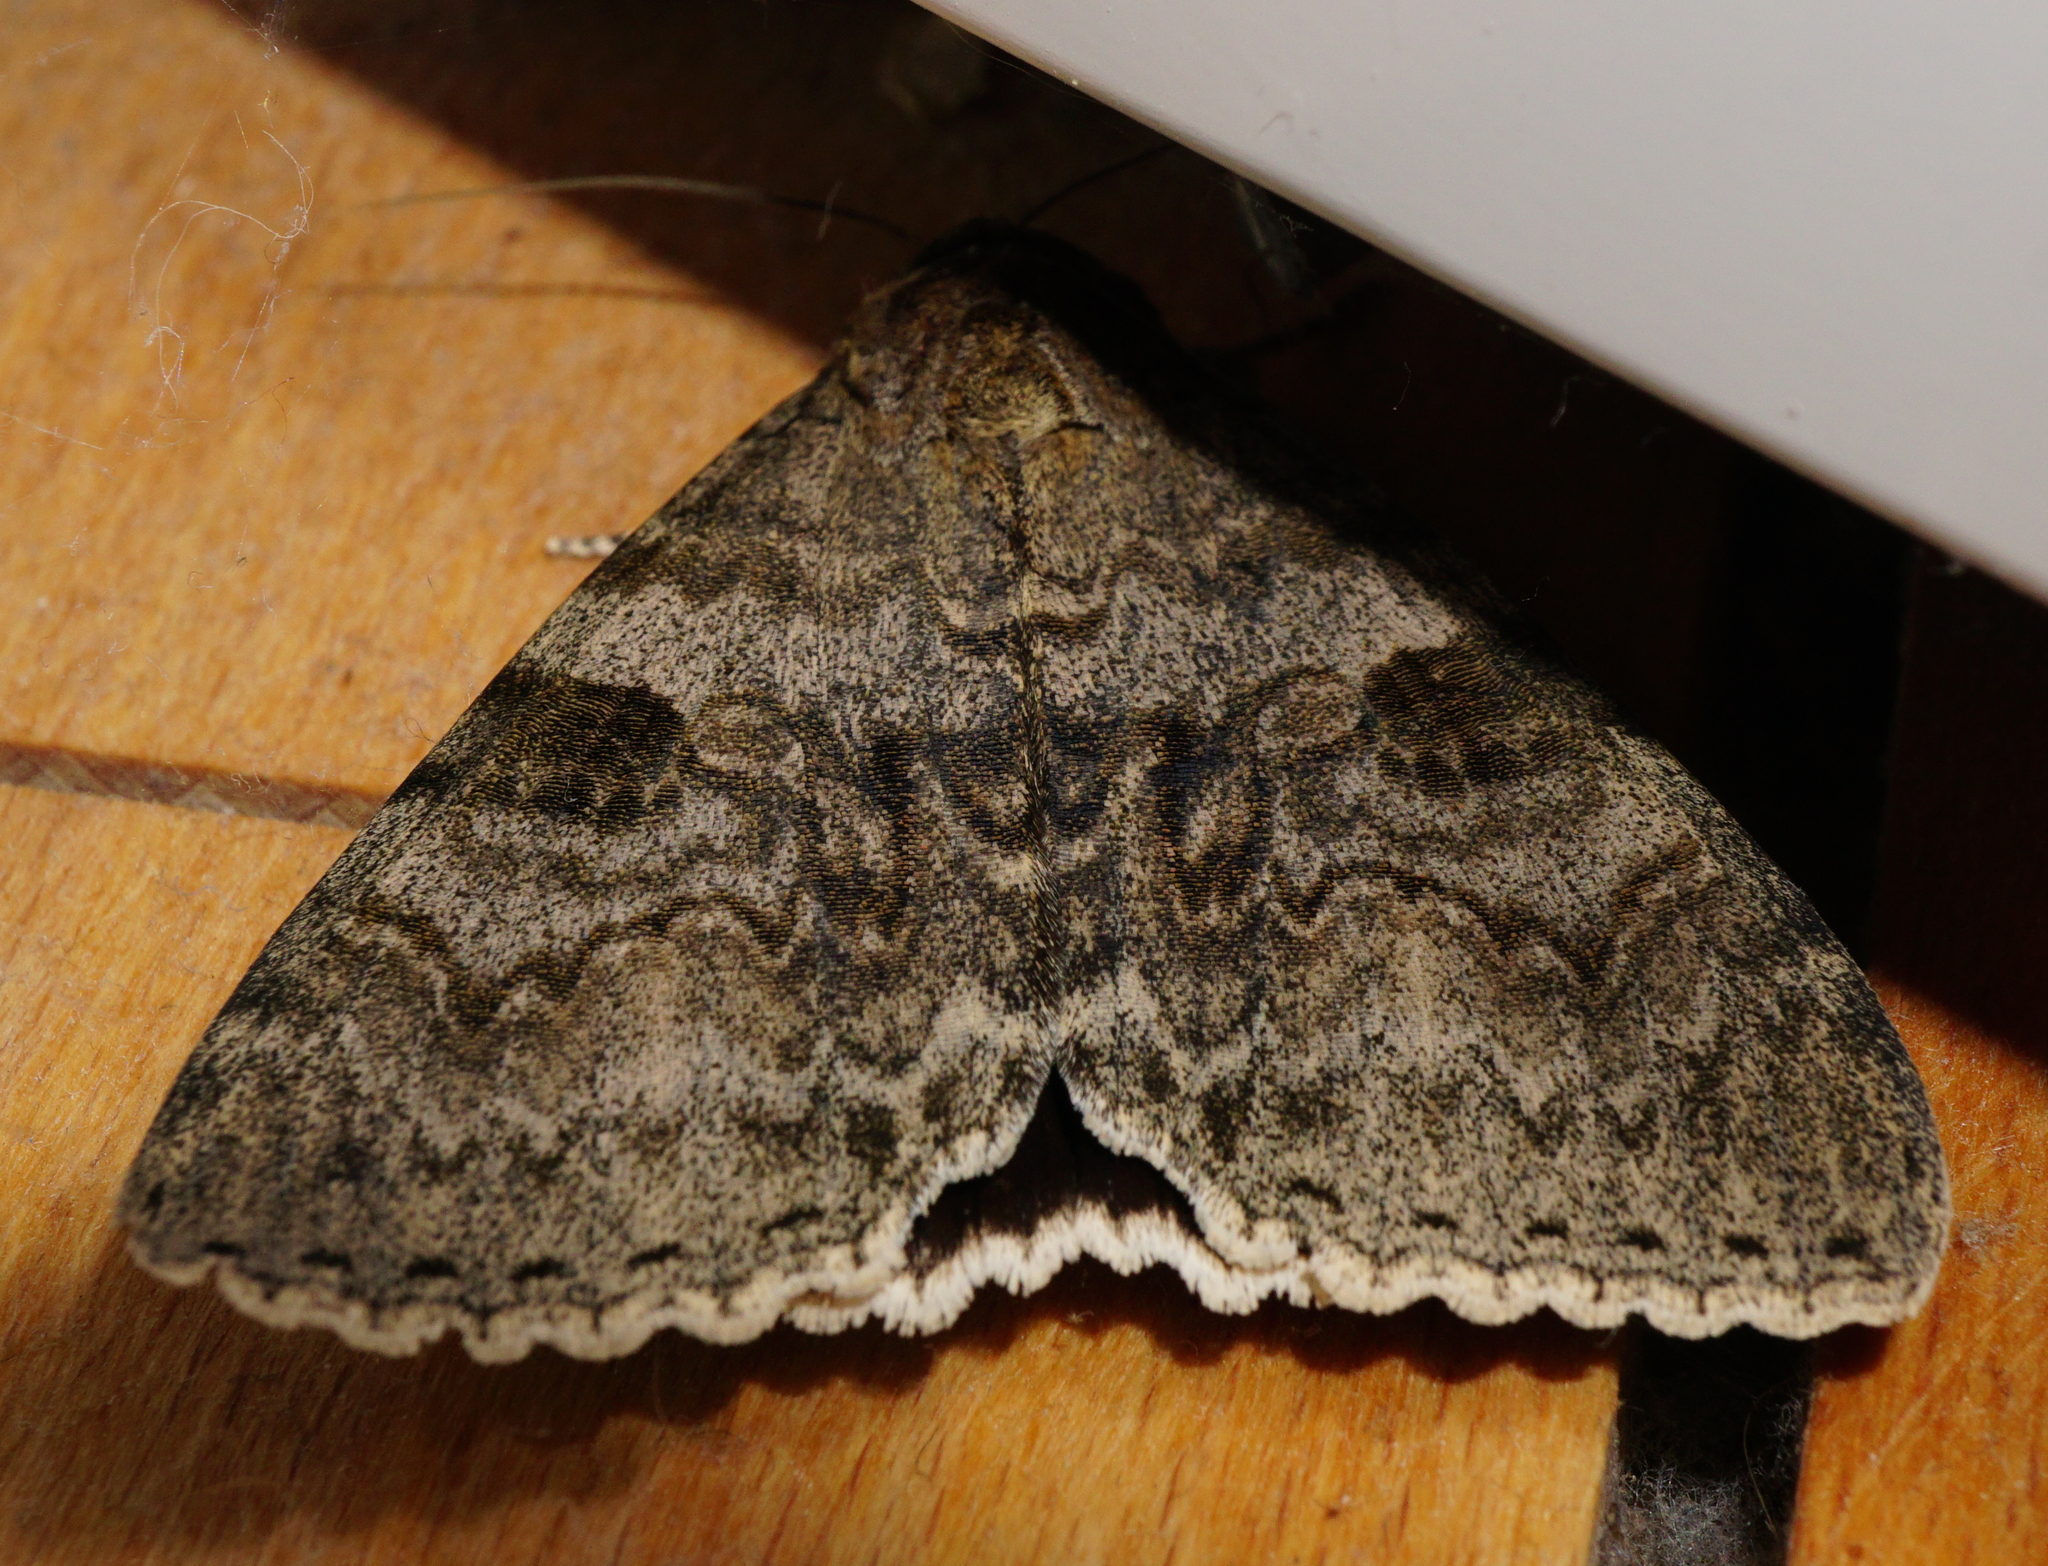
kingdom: Animalia
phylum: Arthropoda
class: Insecta
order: Lepidoptera
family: Erebidae
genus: Catocala
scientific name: Catocala nupta
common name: Red underwing
